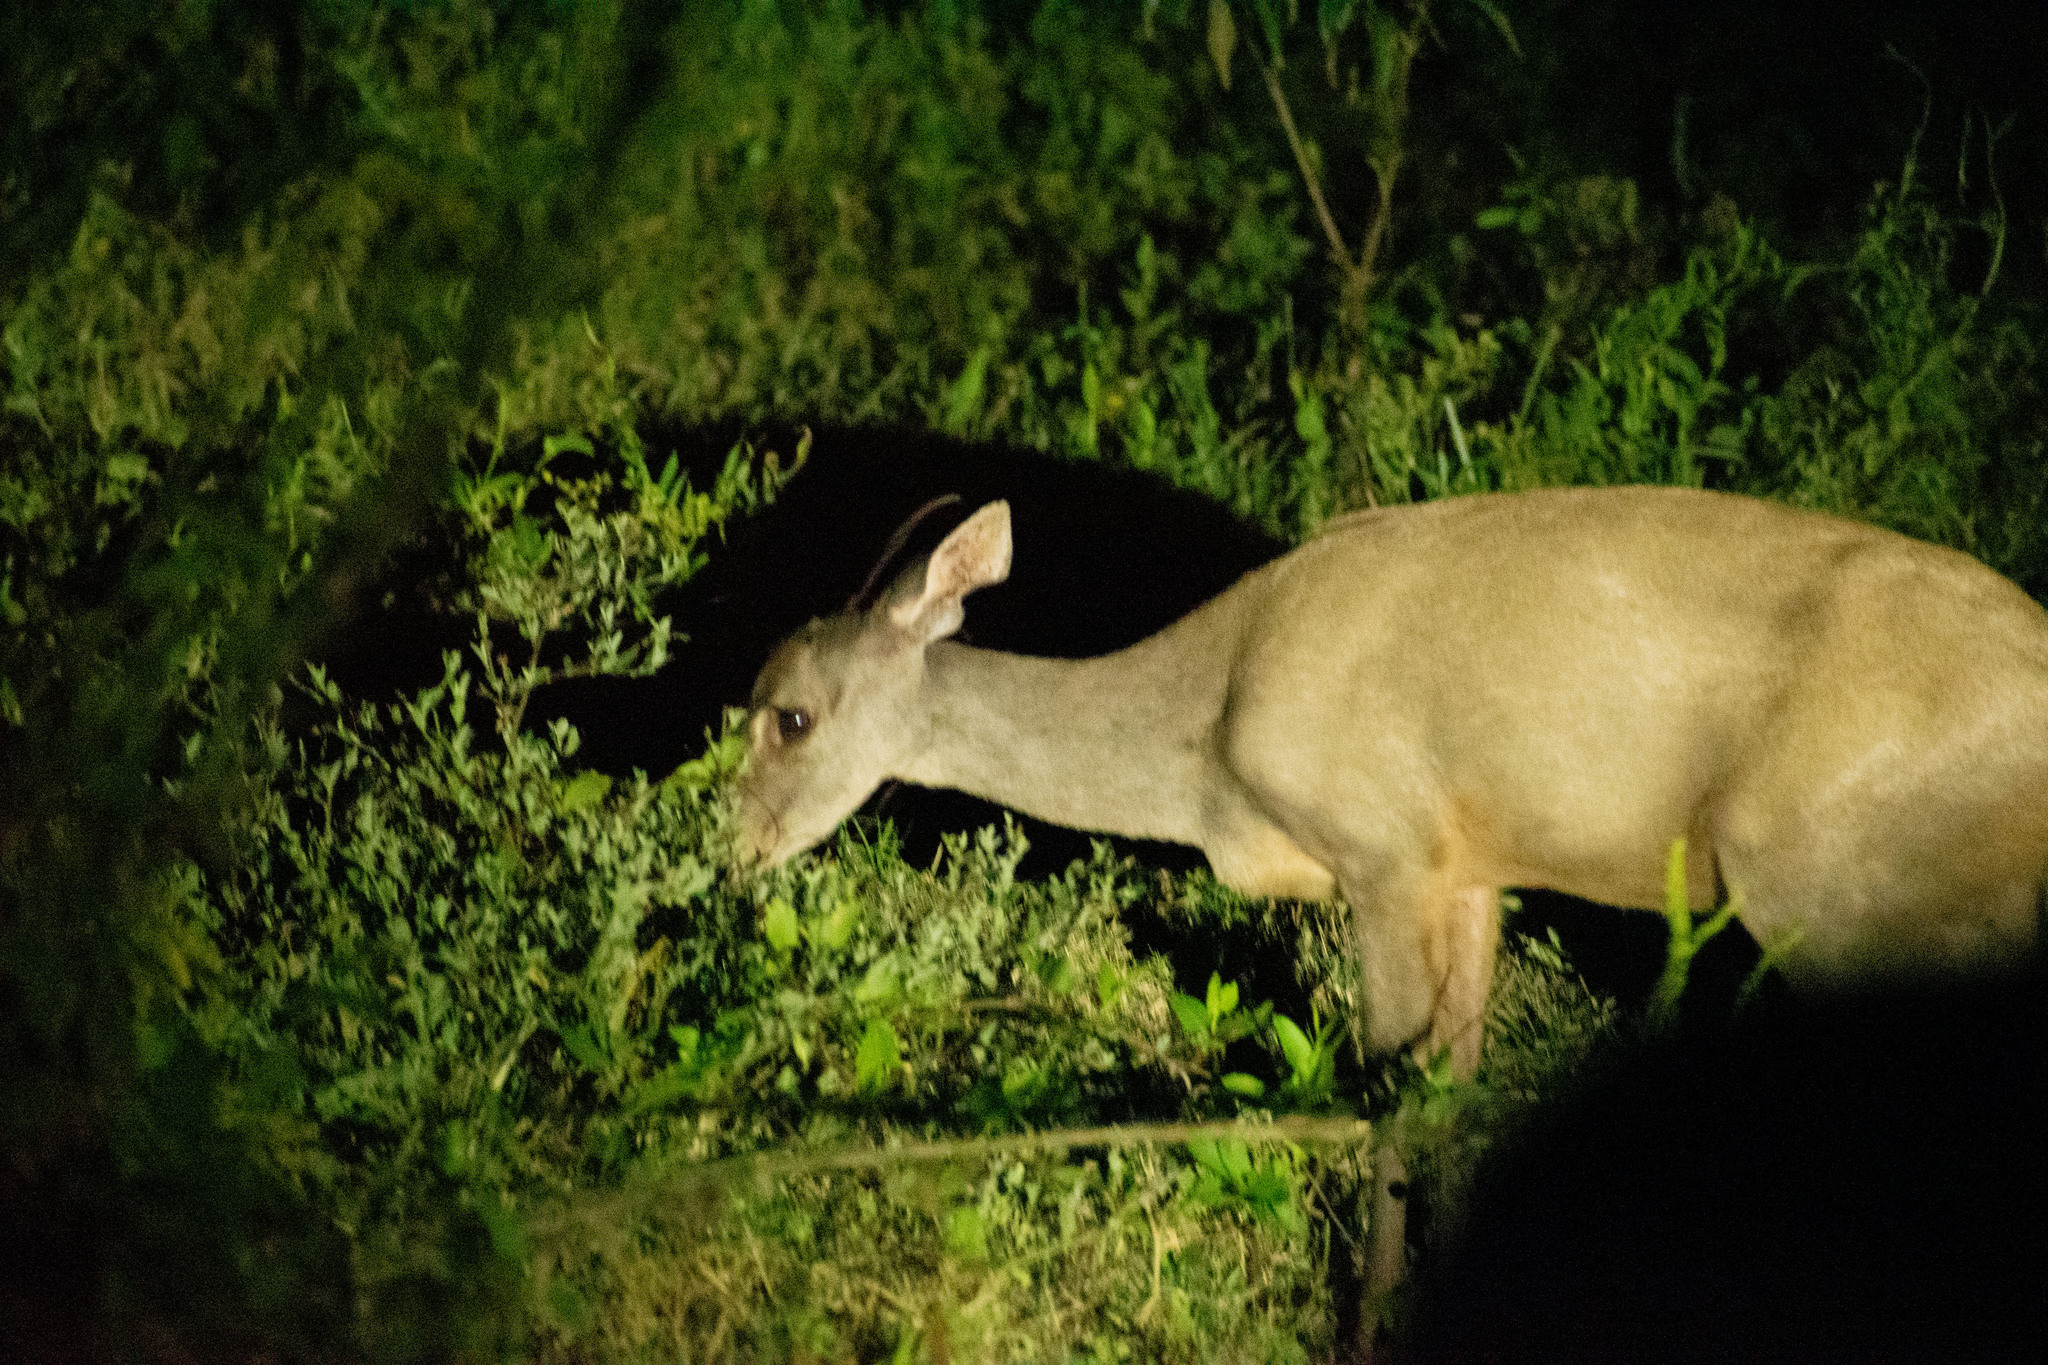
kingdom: Animalia
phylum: Chordata
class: Mammalia
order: Artiodactyla
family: Cervidae
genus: Mazama
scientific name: Mazama gouazoubira
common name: Gray brocket
